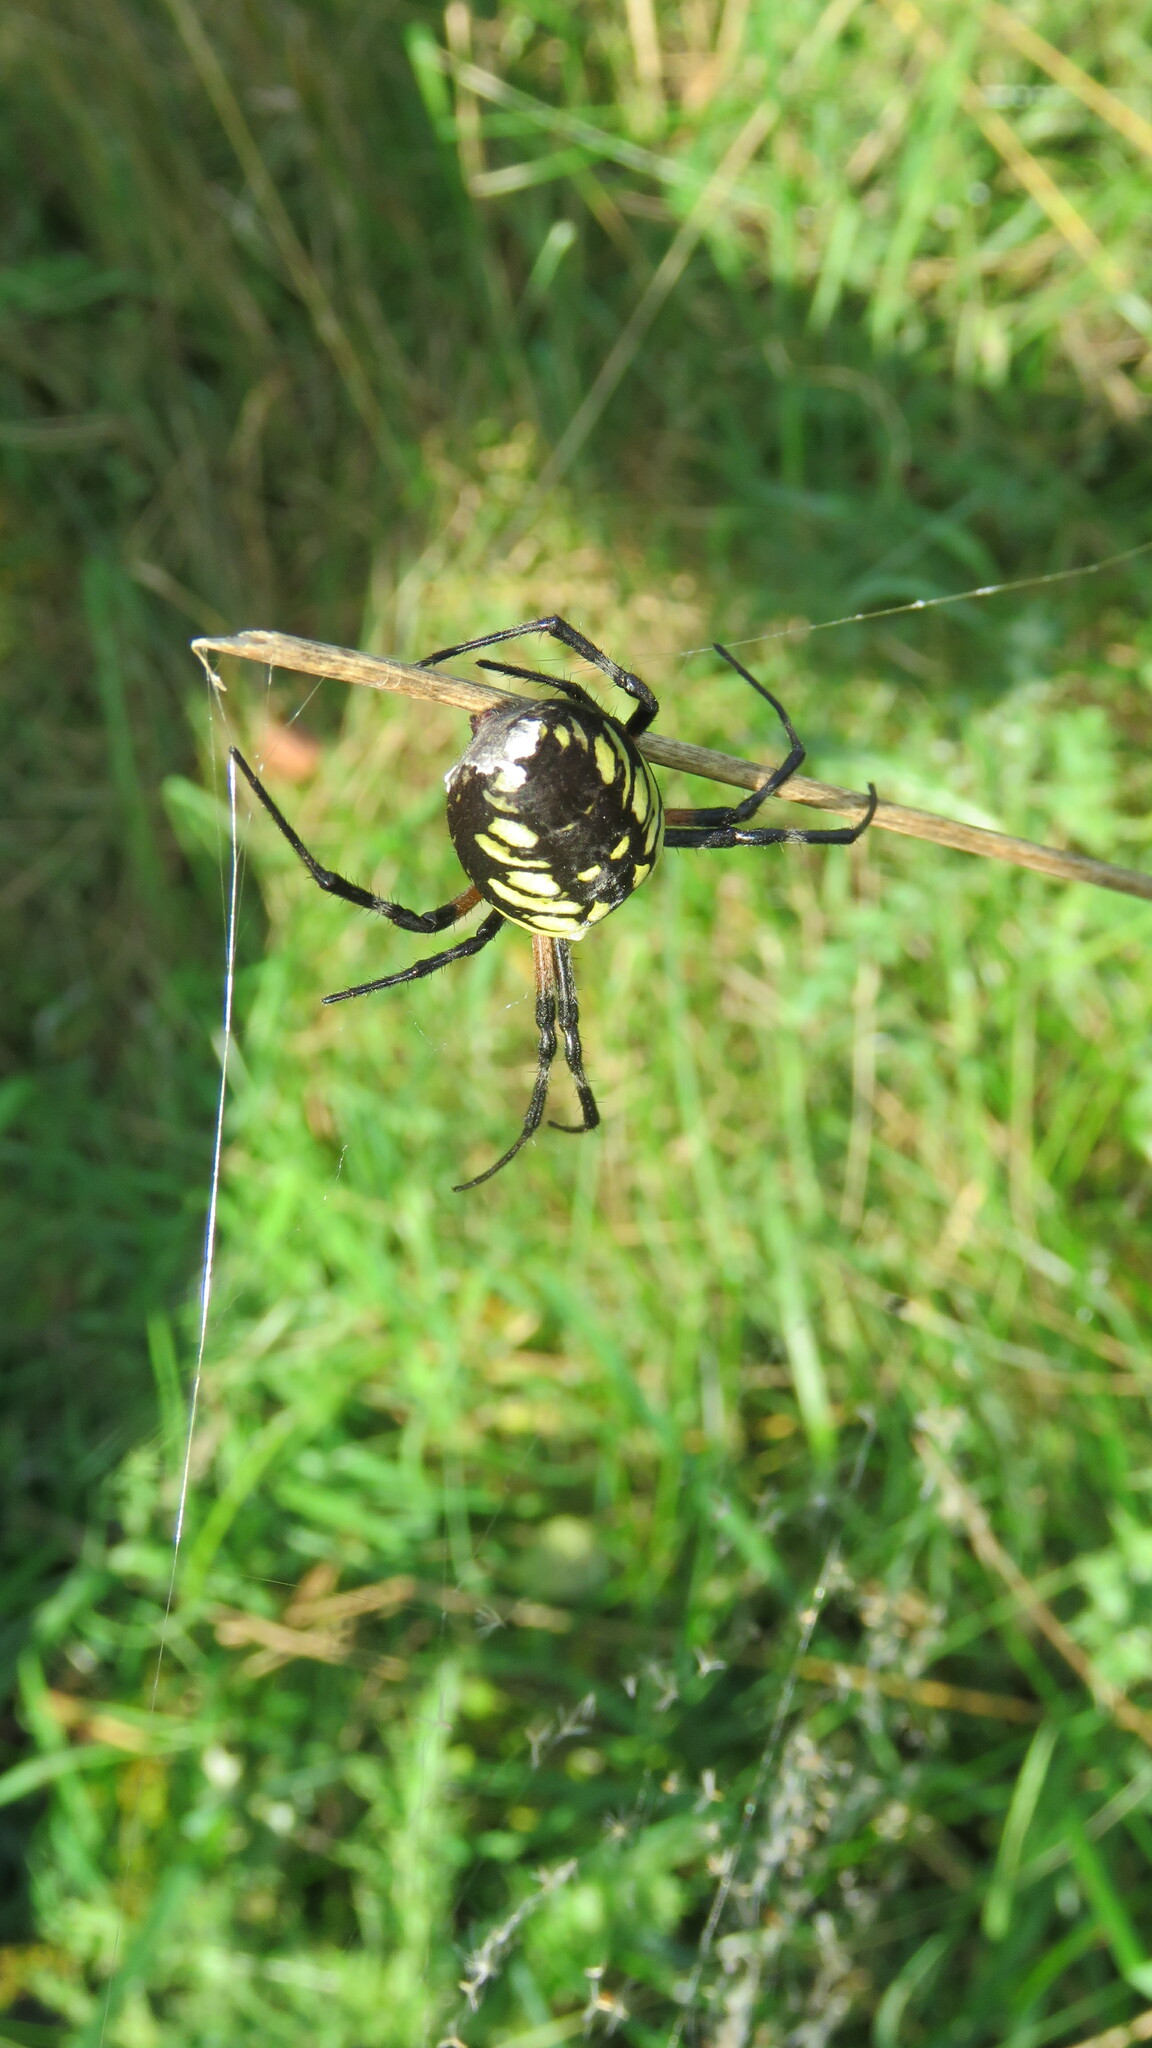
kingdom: Animalia
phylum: Arthropoda
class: Arachnida
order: Araneae
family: Araneidae
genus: Argiope
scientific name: Argiope aurantia
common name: Orb weavers
